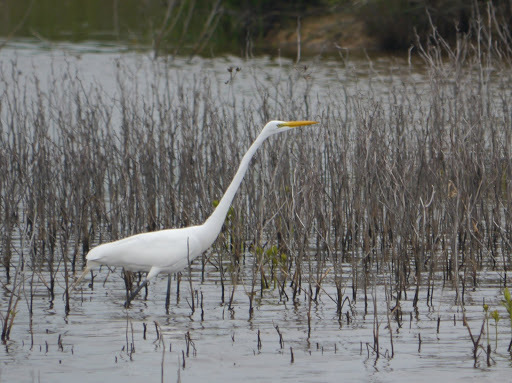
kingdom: Animalia
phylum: Chordata
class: Aves
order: Pelecaniformes
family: Ardeidae
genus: Ardea
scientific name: Ardea alba
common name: Great egret
